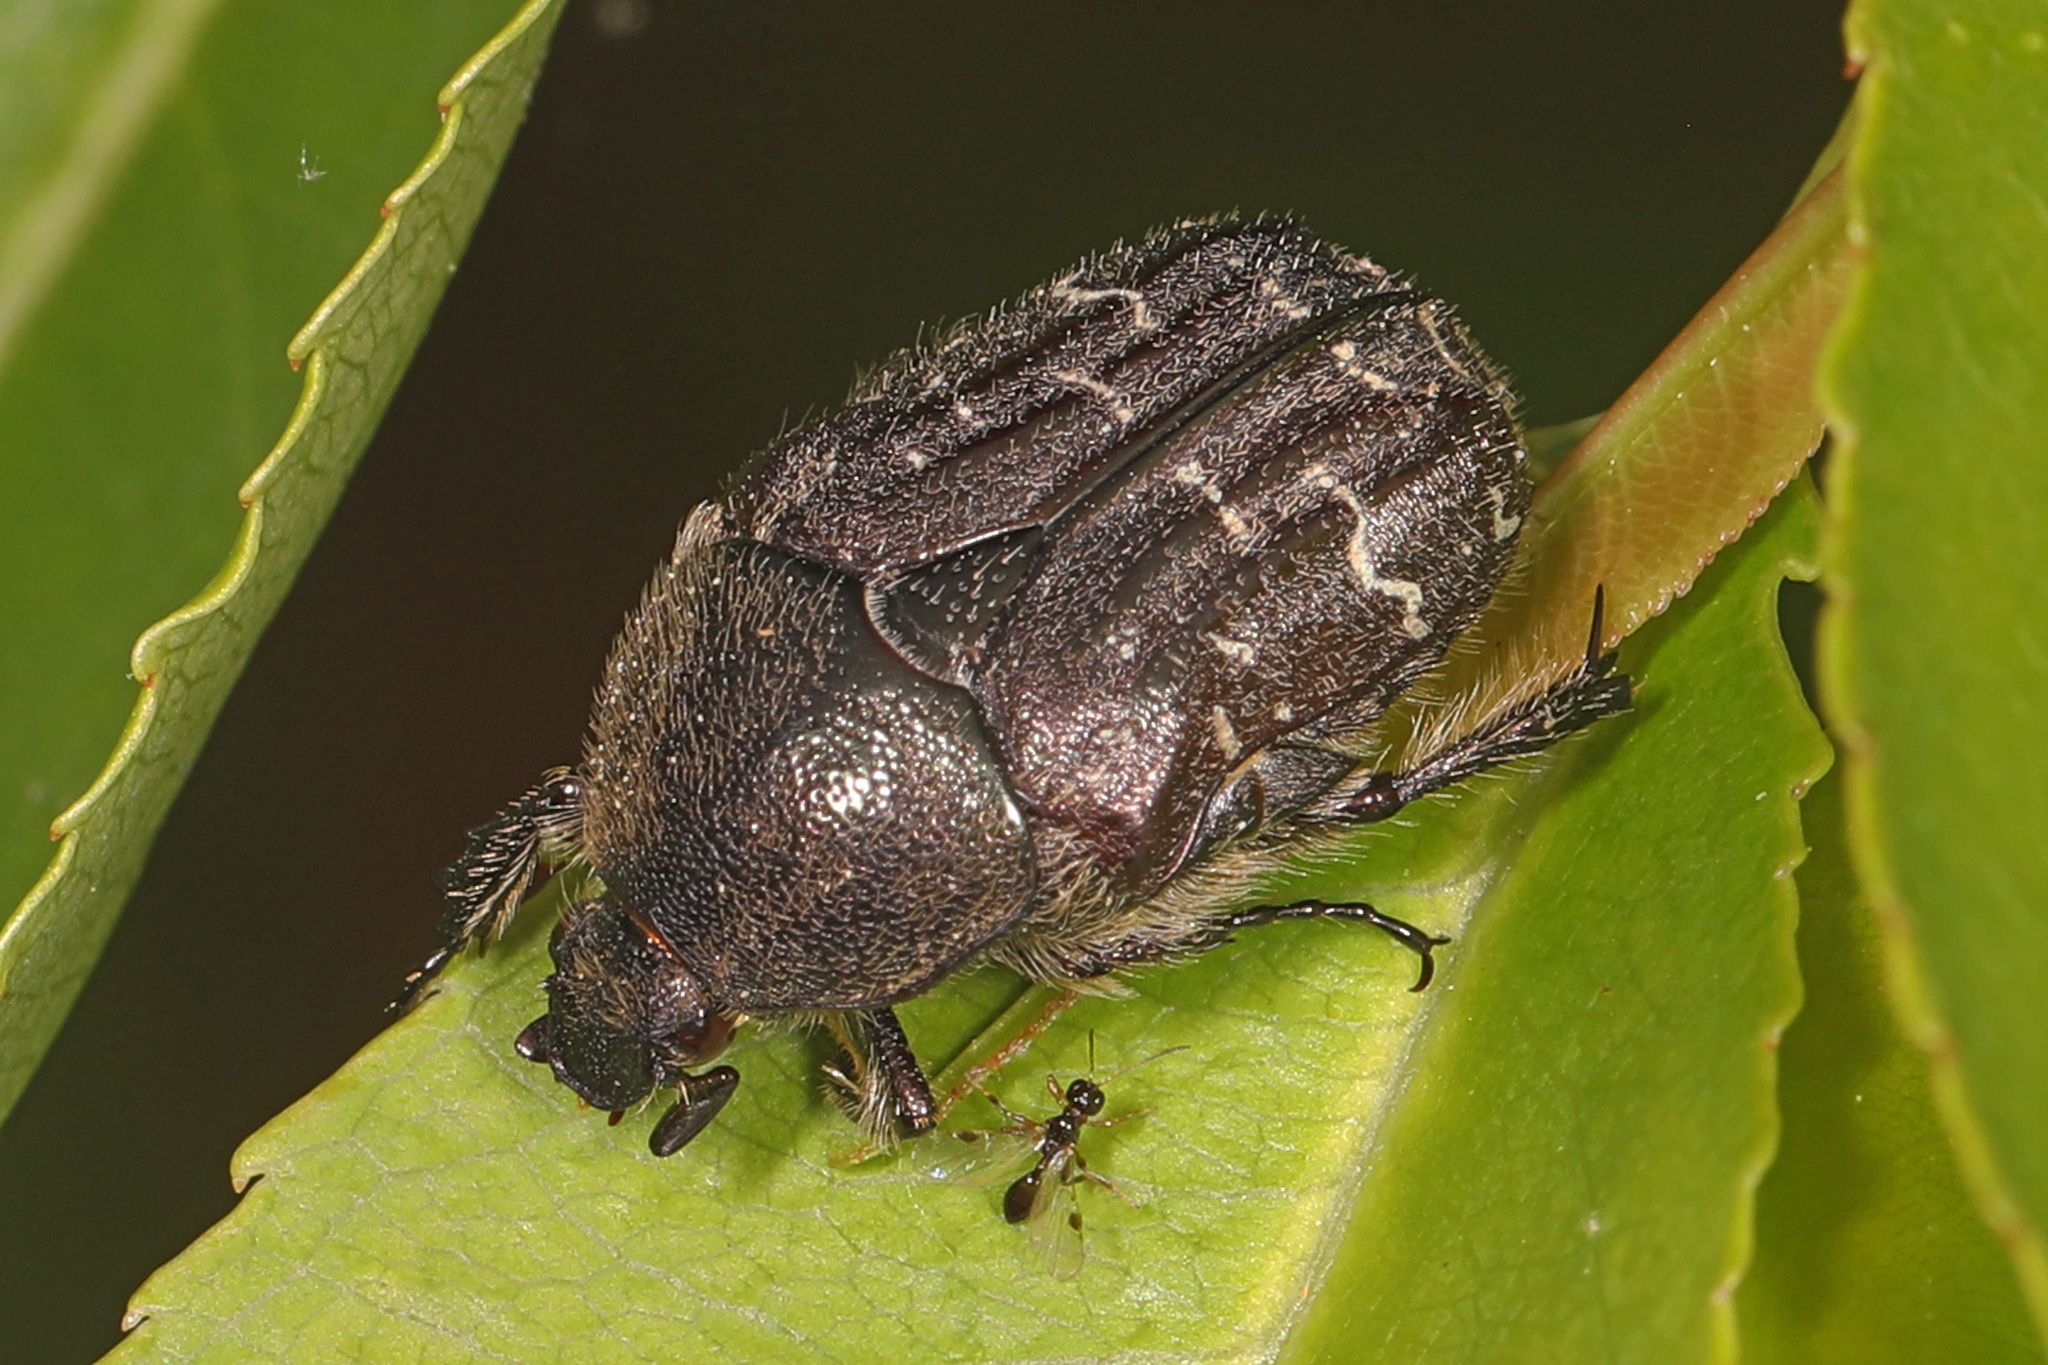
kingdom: Animalia
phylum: Arthropoda
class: Insecta
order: Coleoptera
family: Scarabaeidae
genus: Euphoria
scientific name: Euphoria sepulcralis
